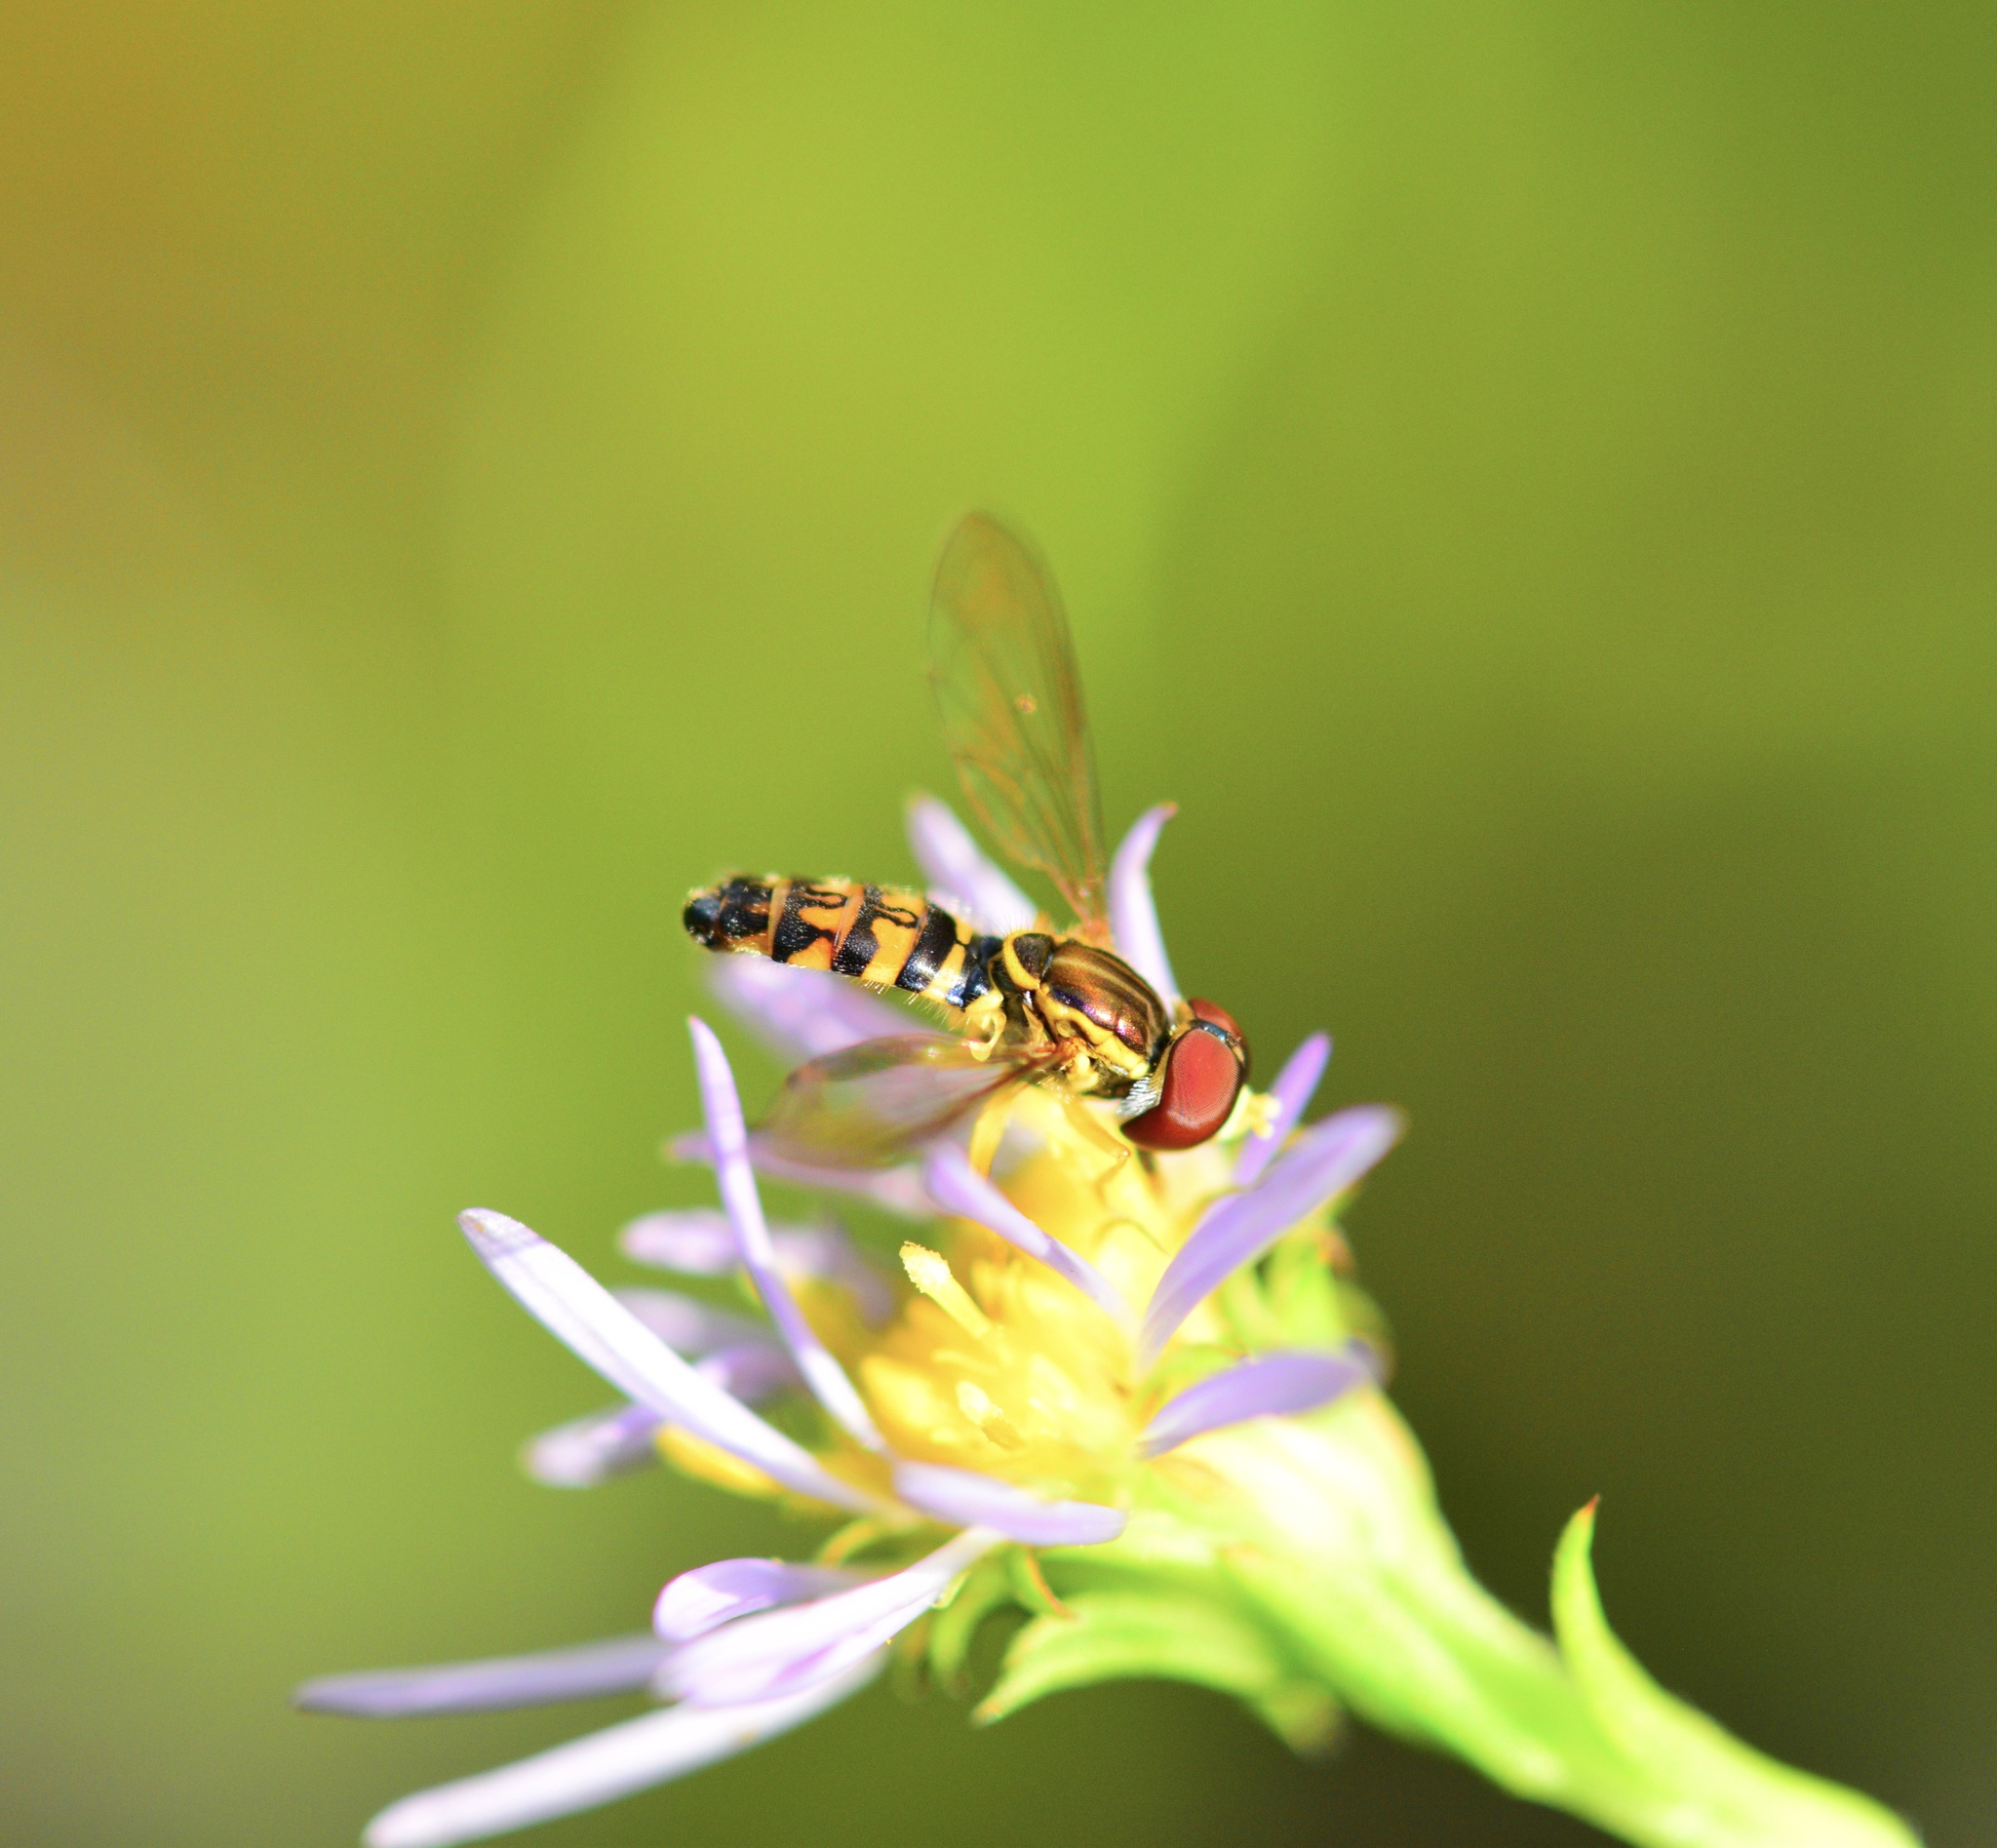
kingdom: Animalia
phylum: Arthropoda
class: Insecta
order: Diptera
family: Syrphidae
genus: Toxomerus
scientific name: Toxomerus geminatus
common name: Eastern calligrapher
